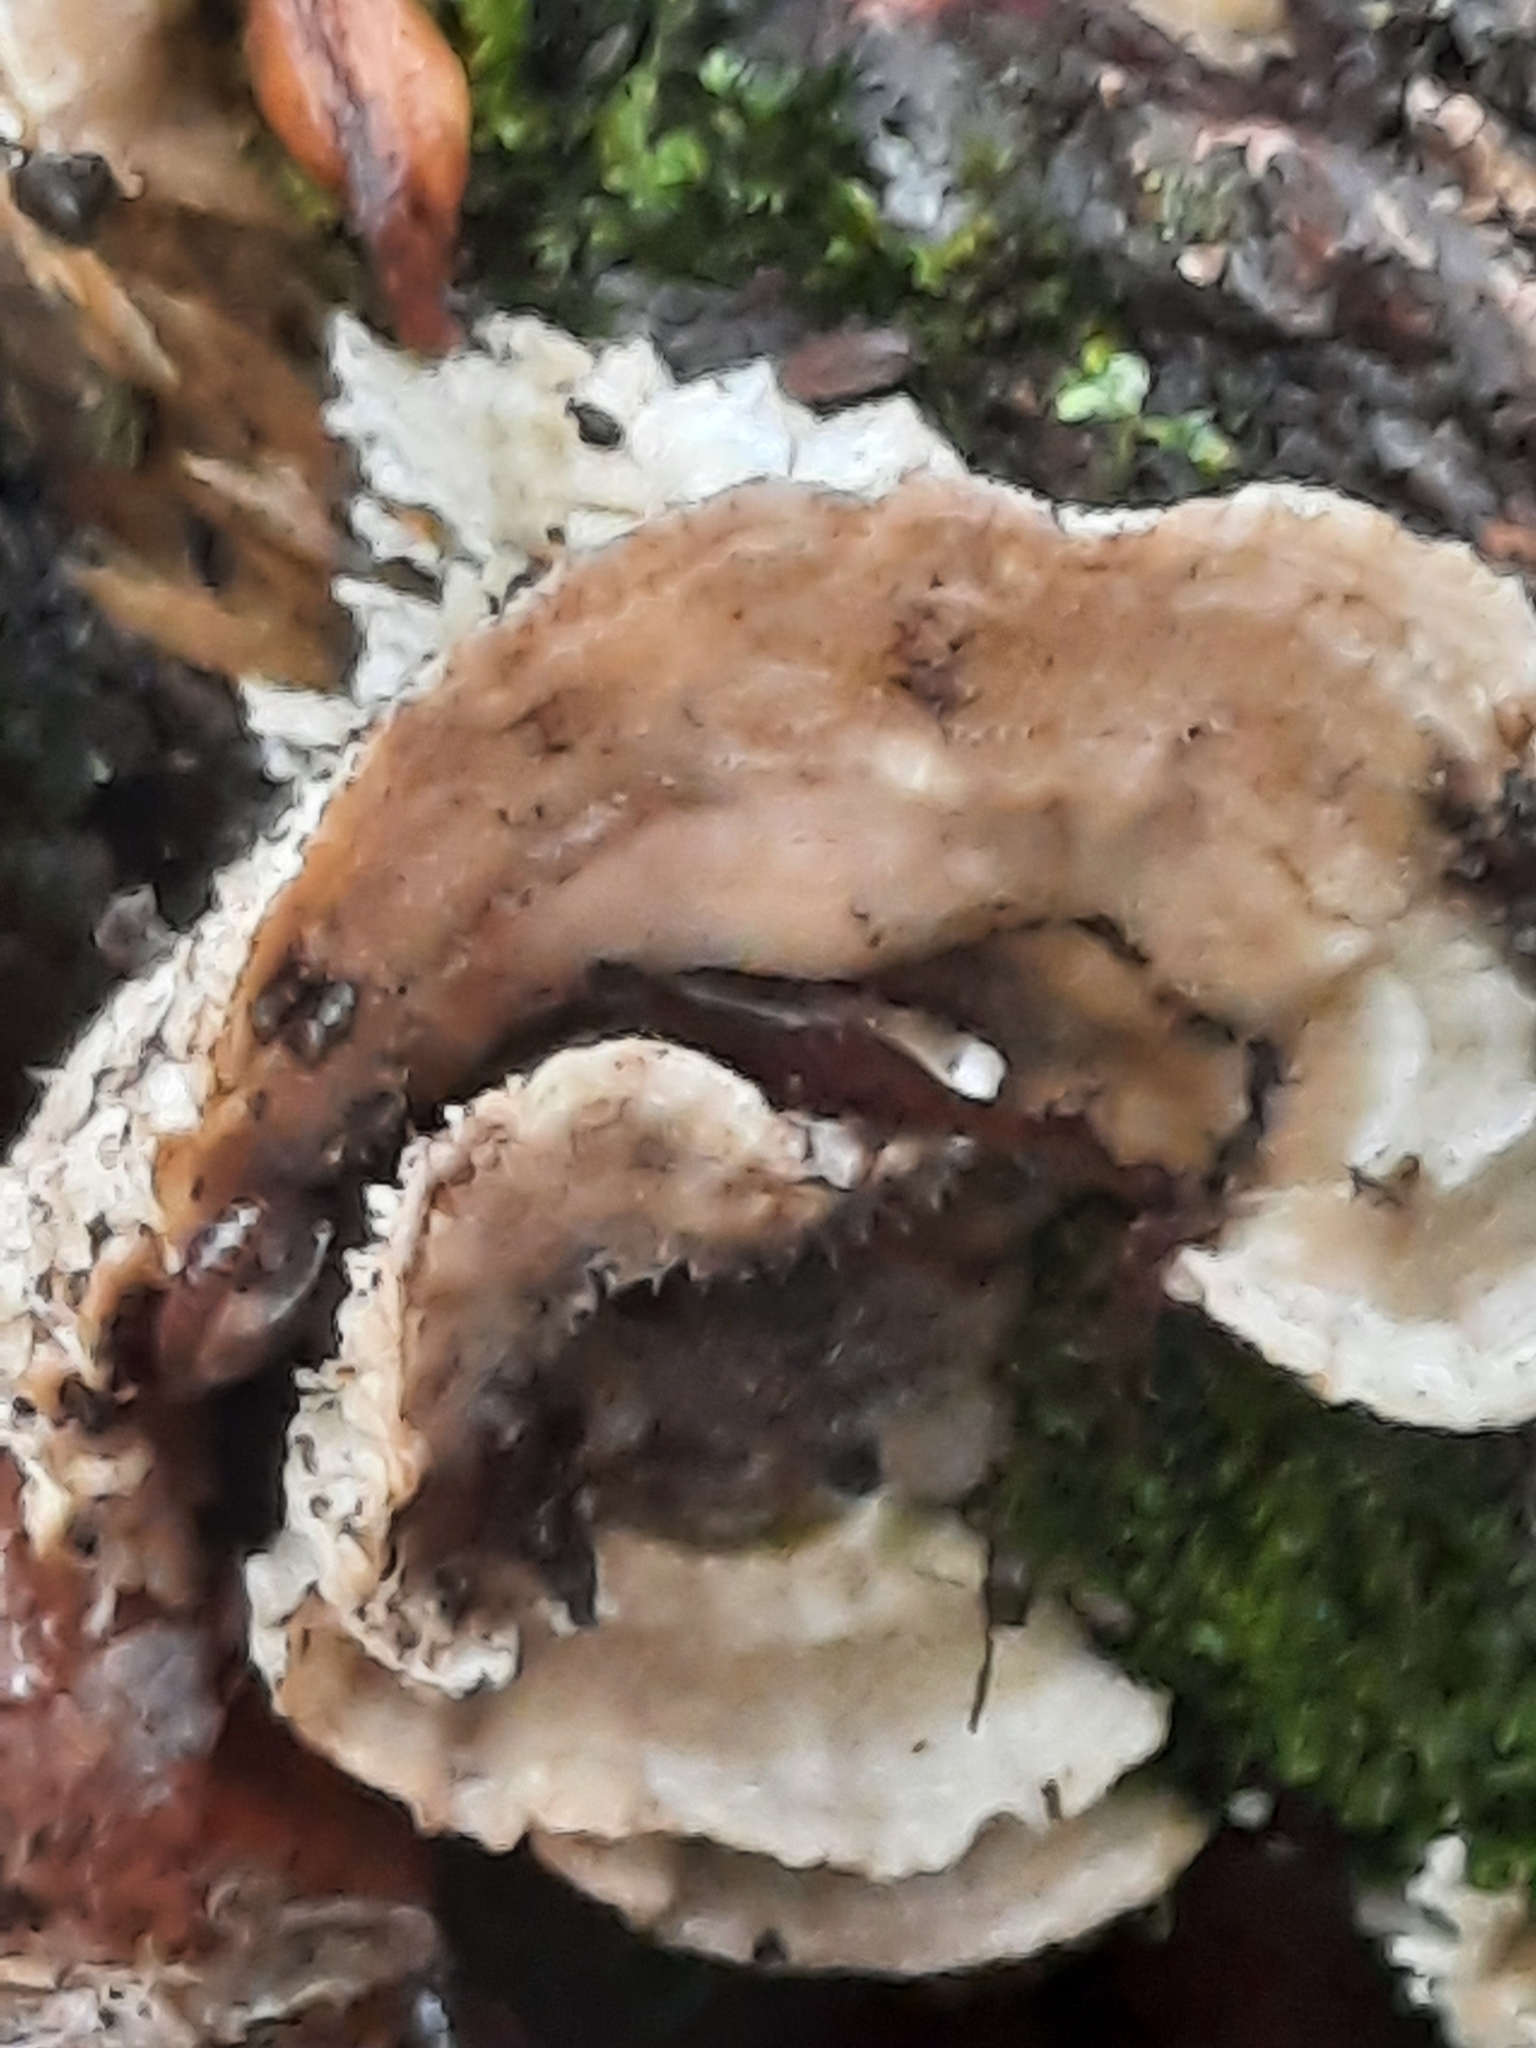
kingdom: Fungi
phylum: Basidiomycota
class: Agaricomycetes
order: Polyporales
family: Polyporaceae
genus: Lenzites
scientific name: Lenzites betulinus
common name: Birch mazegill
